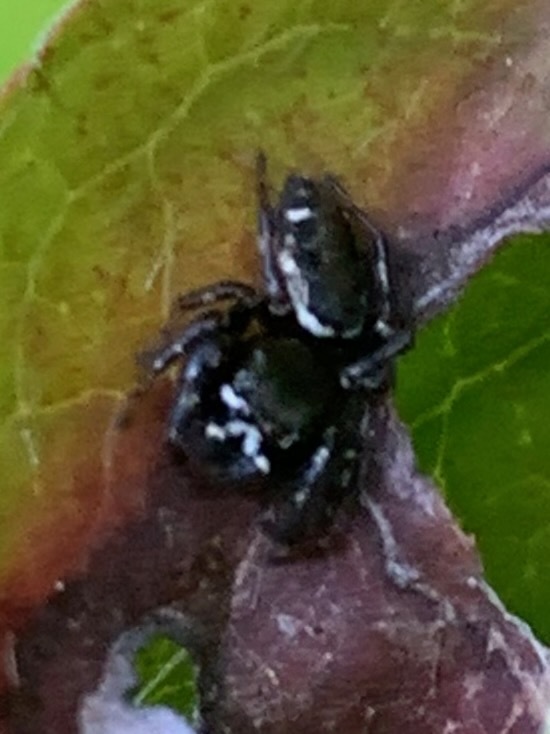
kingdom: Animalia
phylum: Arthropoda
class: Arachnida
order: Araneae
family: Salticidae
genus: Metaphidippus
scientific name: Metaphidippus manni
